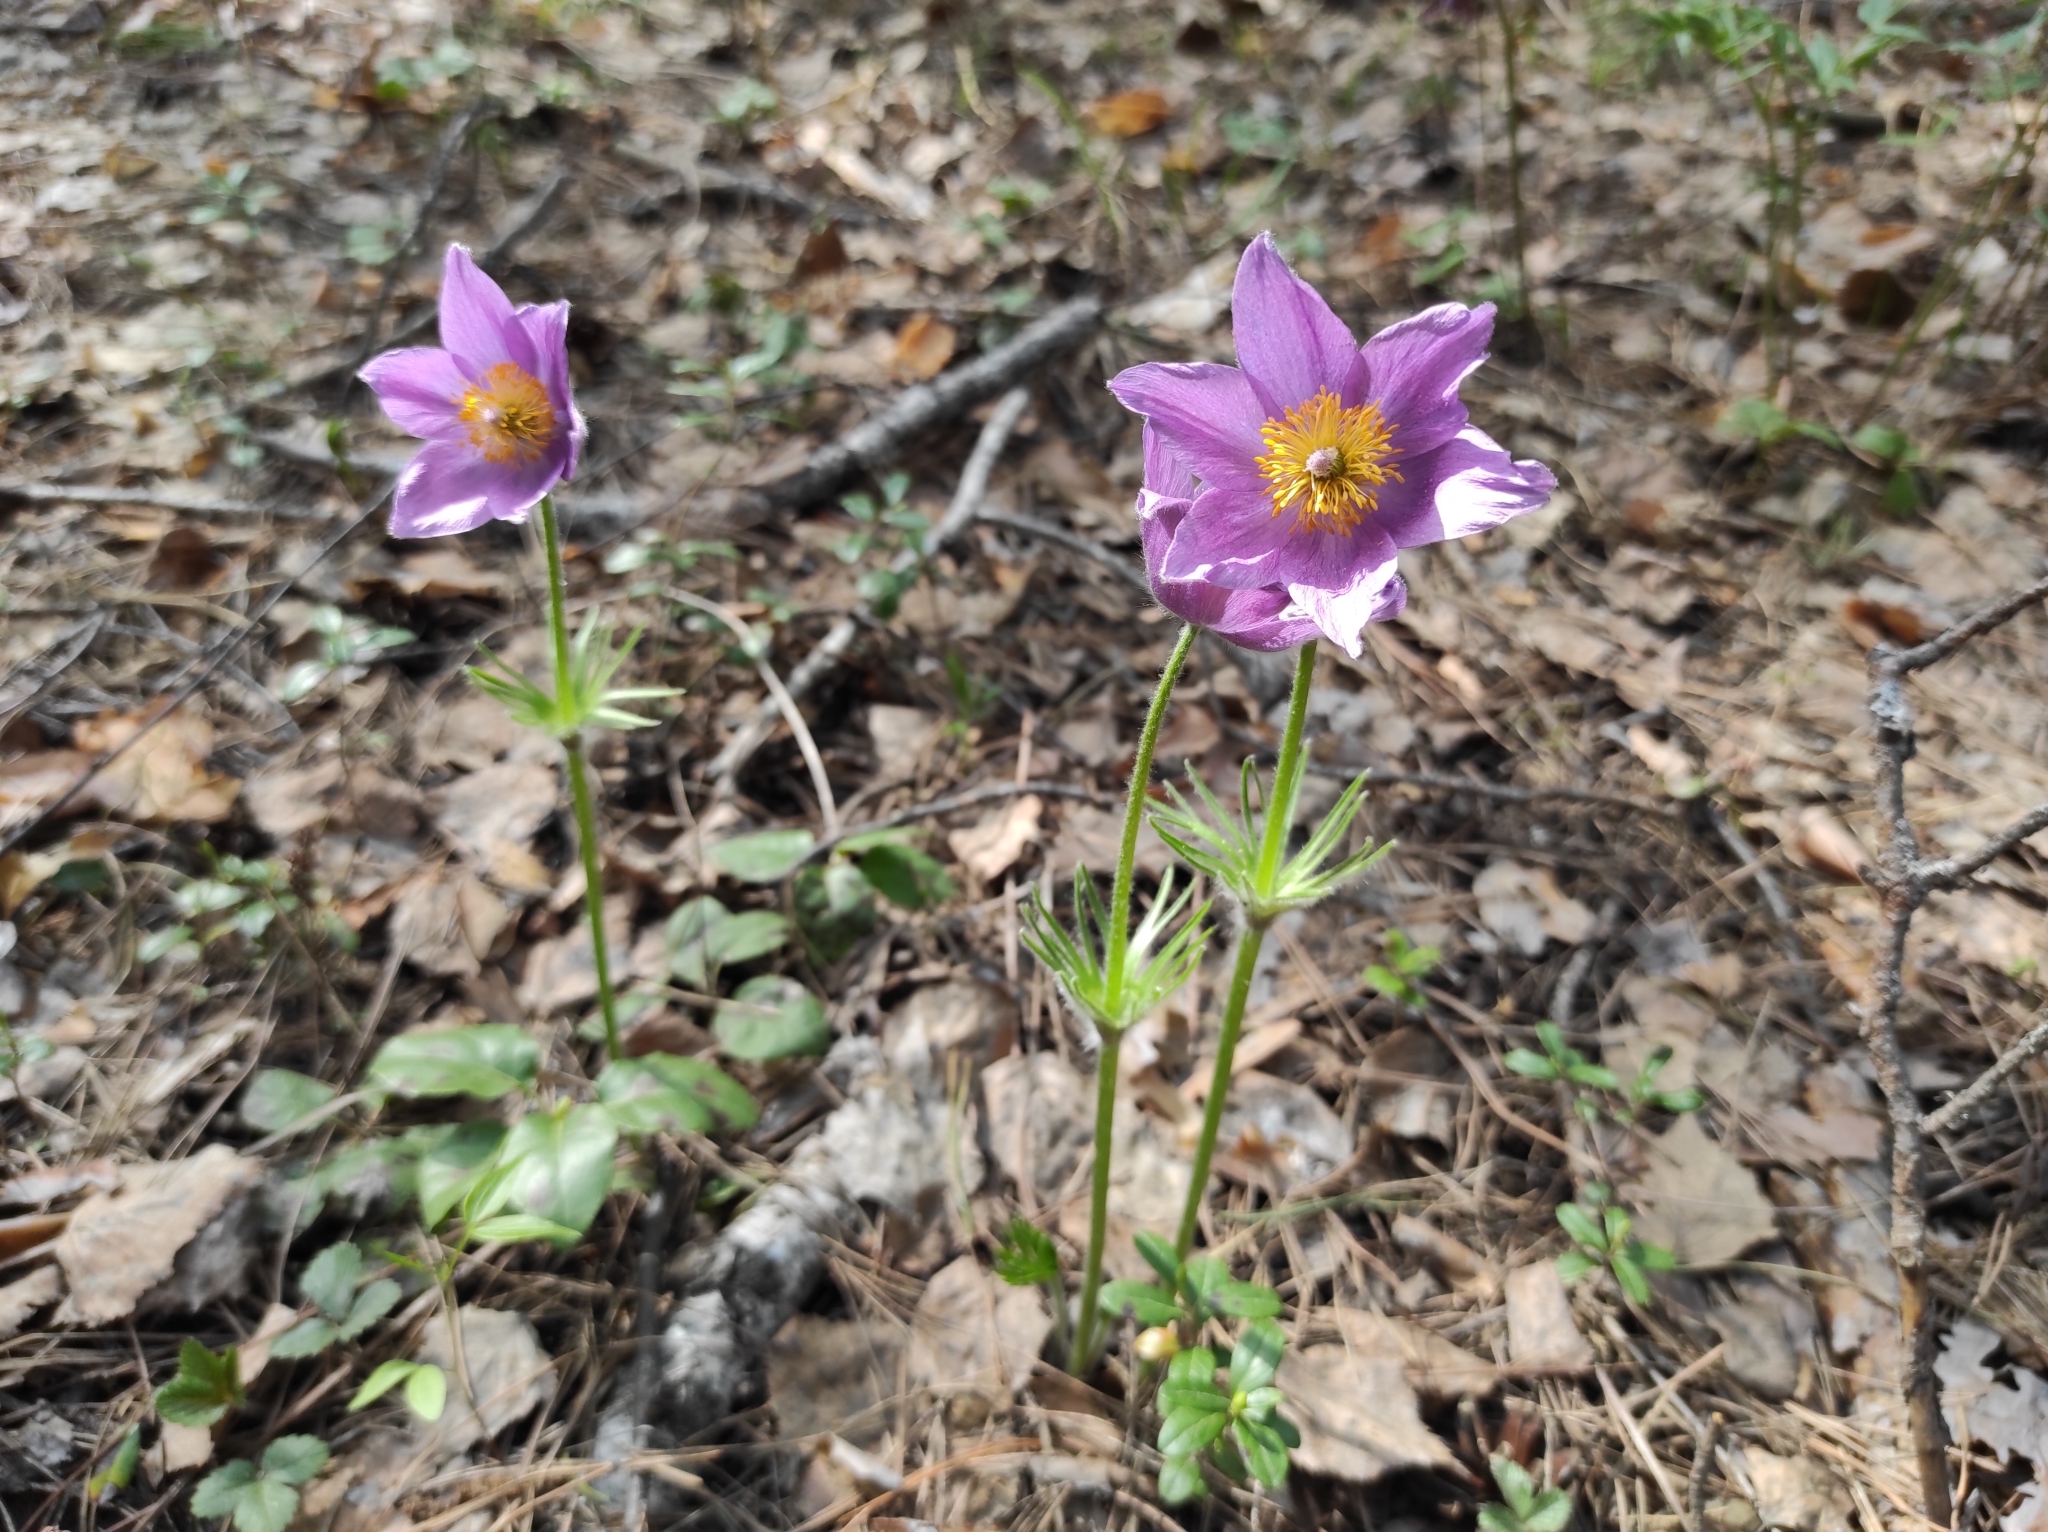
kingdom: Plantae
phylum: Tracheophyta
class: Magnoliopsida
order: Ranunculales
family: Ranunculaceae
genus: Pulsatilla
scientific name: Pulsatilla patens
